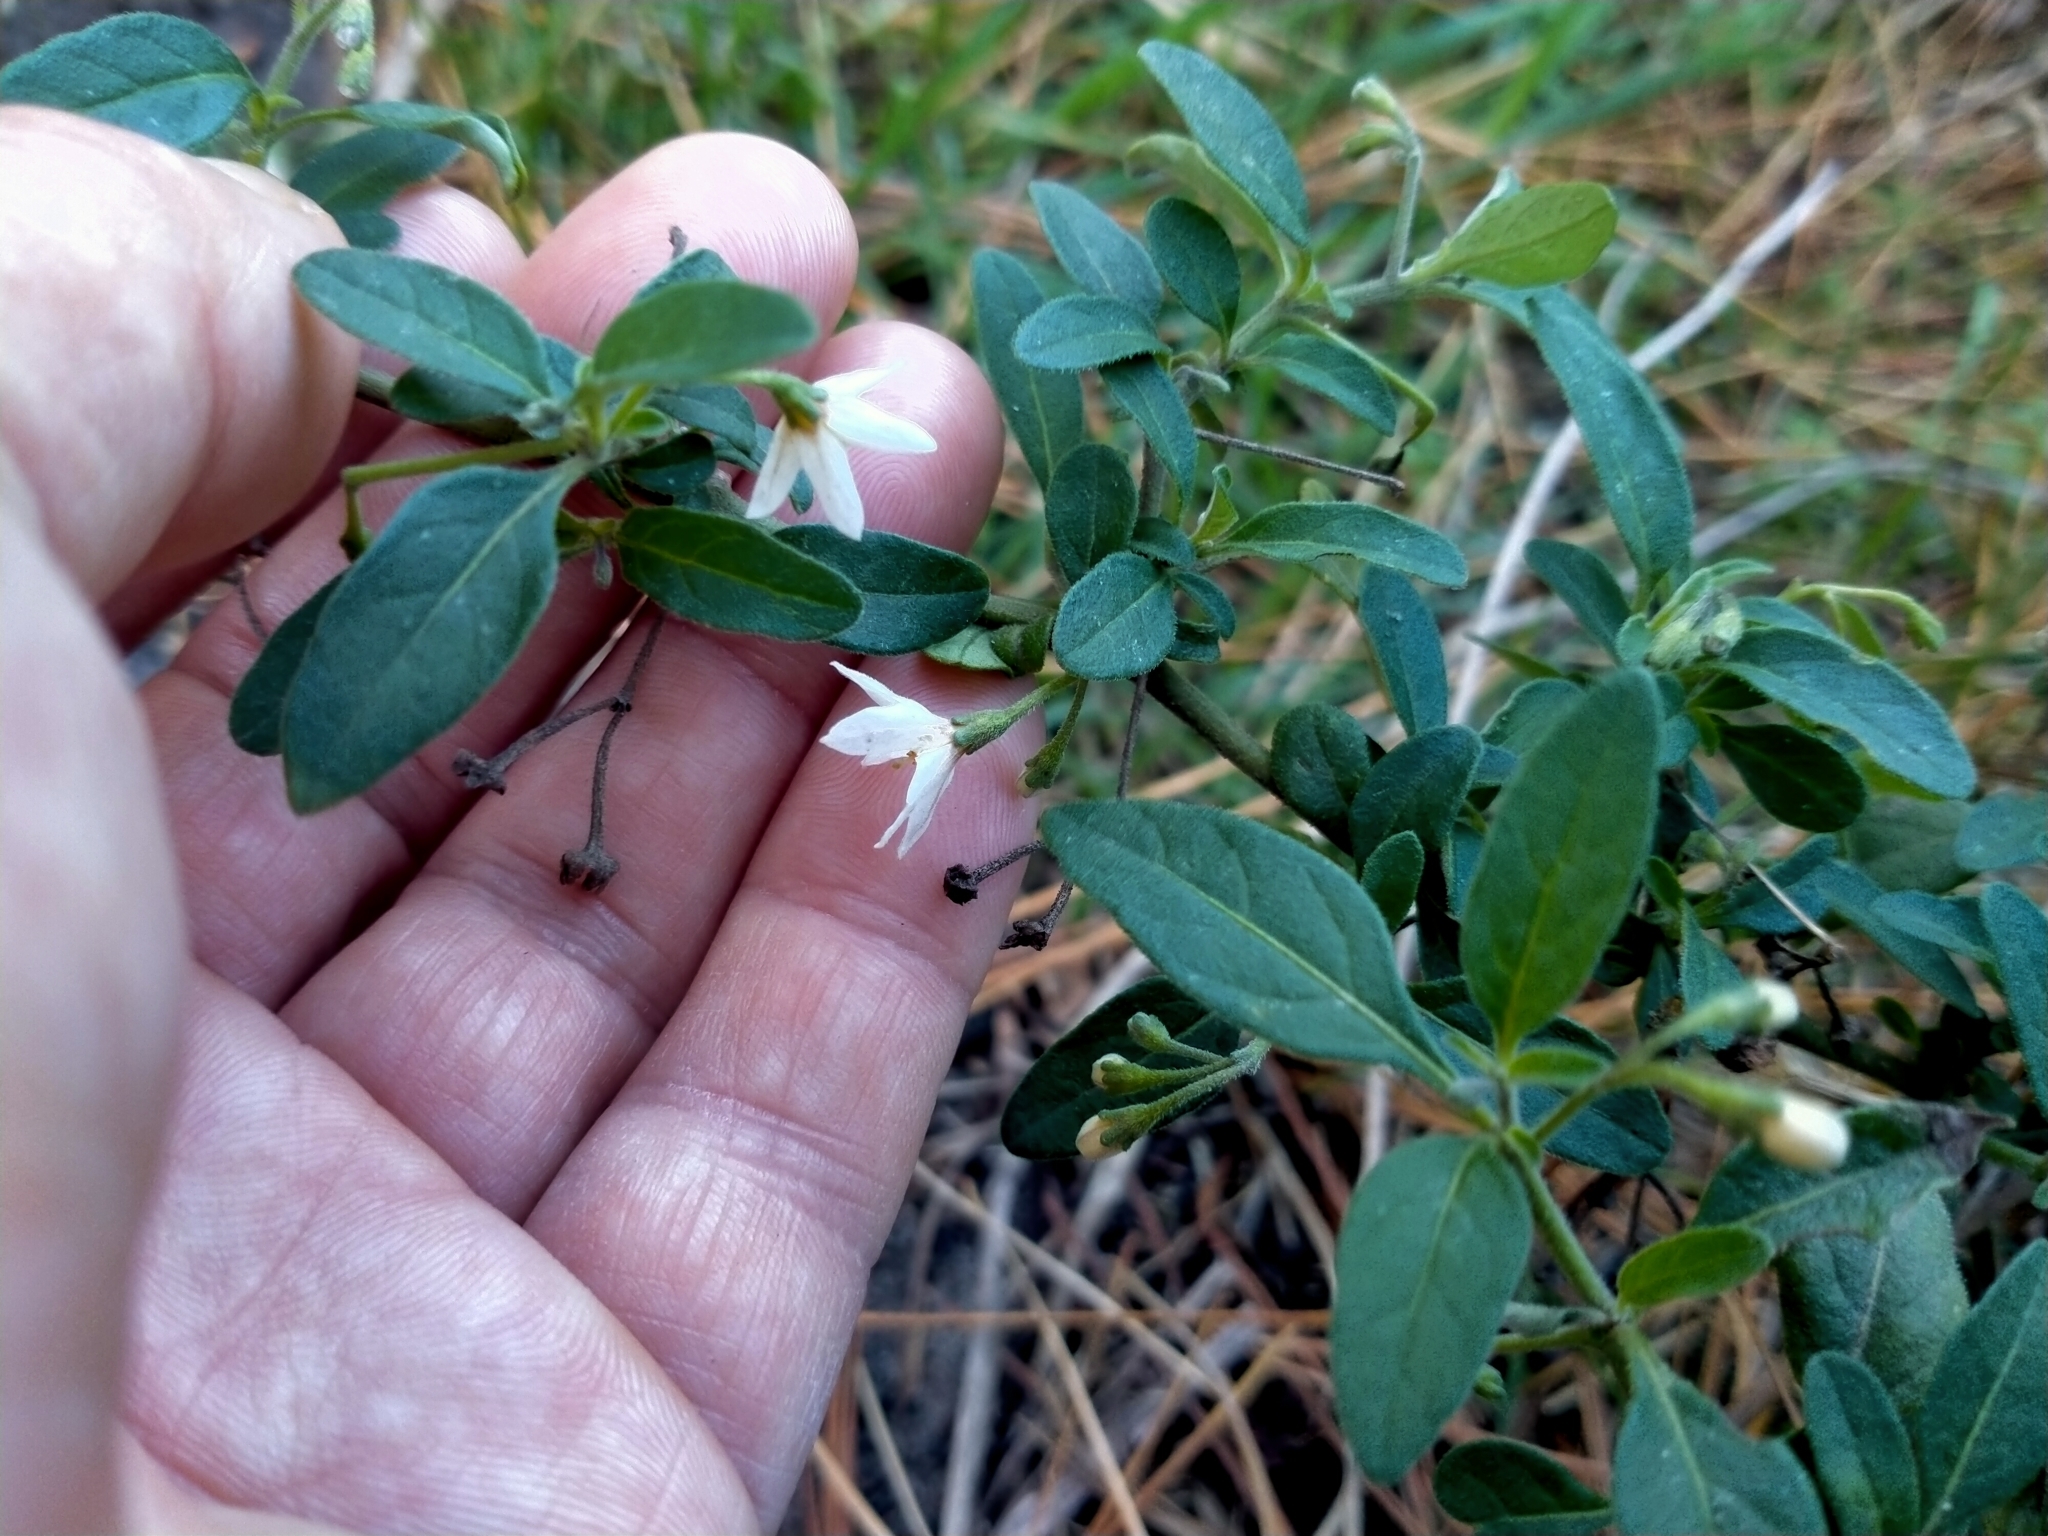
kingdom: Plantae
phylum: Tracheophyta
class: Magnoliopsida
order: Solanales
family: Solanaceae
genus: Solanum
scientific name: Solanum chenopodioides
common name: Tall nightshade
